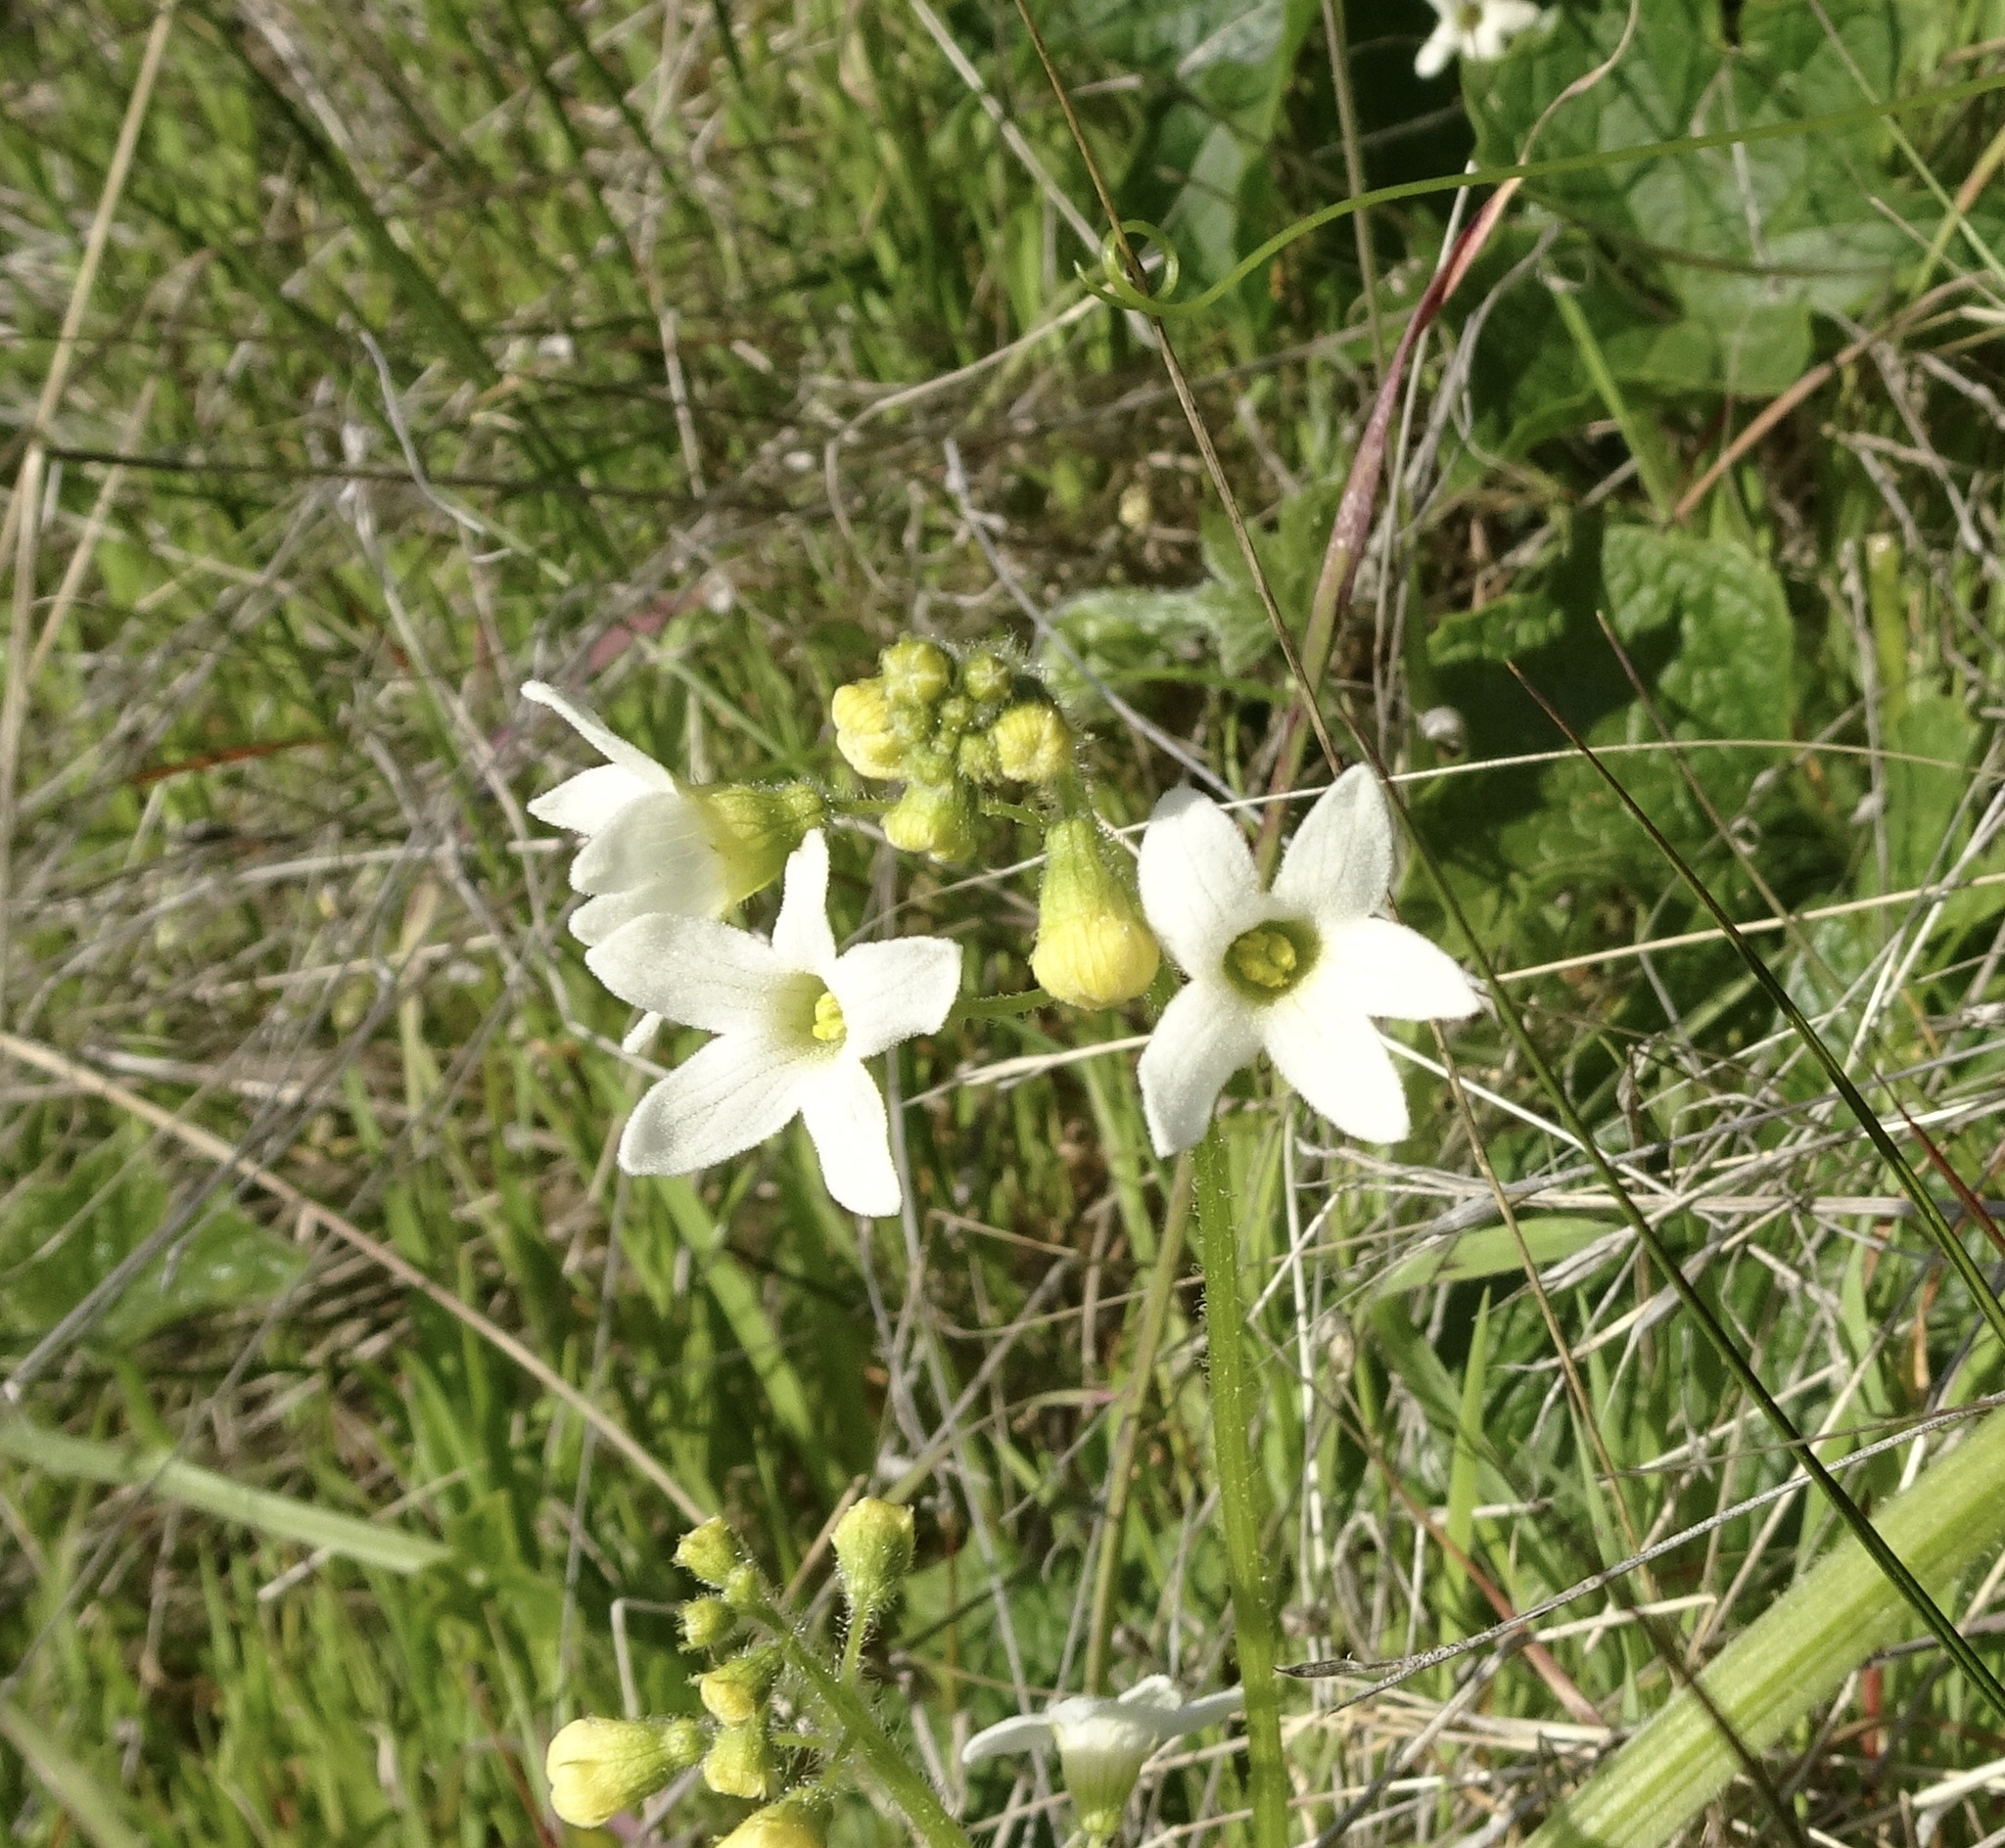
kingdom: Plantae
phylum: Tracheophyta
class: Magnoliopsida
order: Cucurbitales
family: Cucurbitaceae
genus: Marah
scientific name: Marah oregana
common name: Coastal manroot
